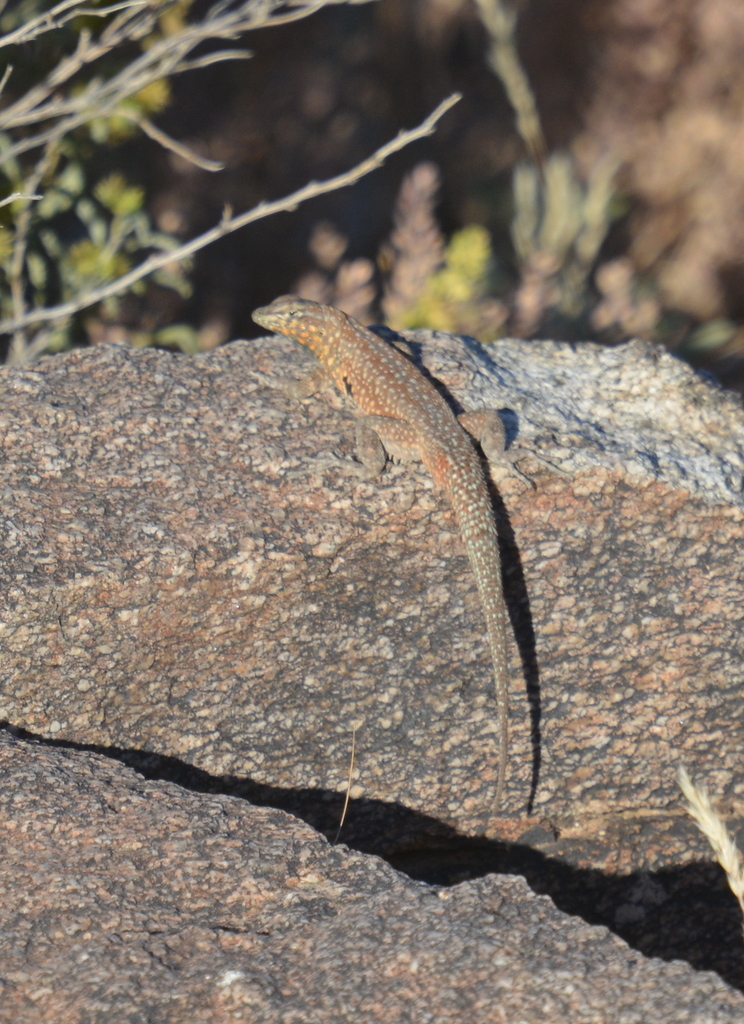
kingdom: Animalia
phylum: Chordata
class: Squamata
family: Phrynosomatidae
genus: Uta
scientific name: Uta stansburiana
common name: Side-blotched lizard
